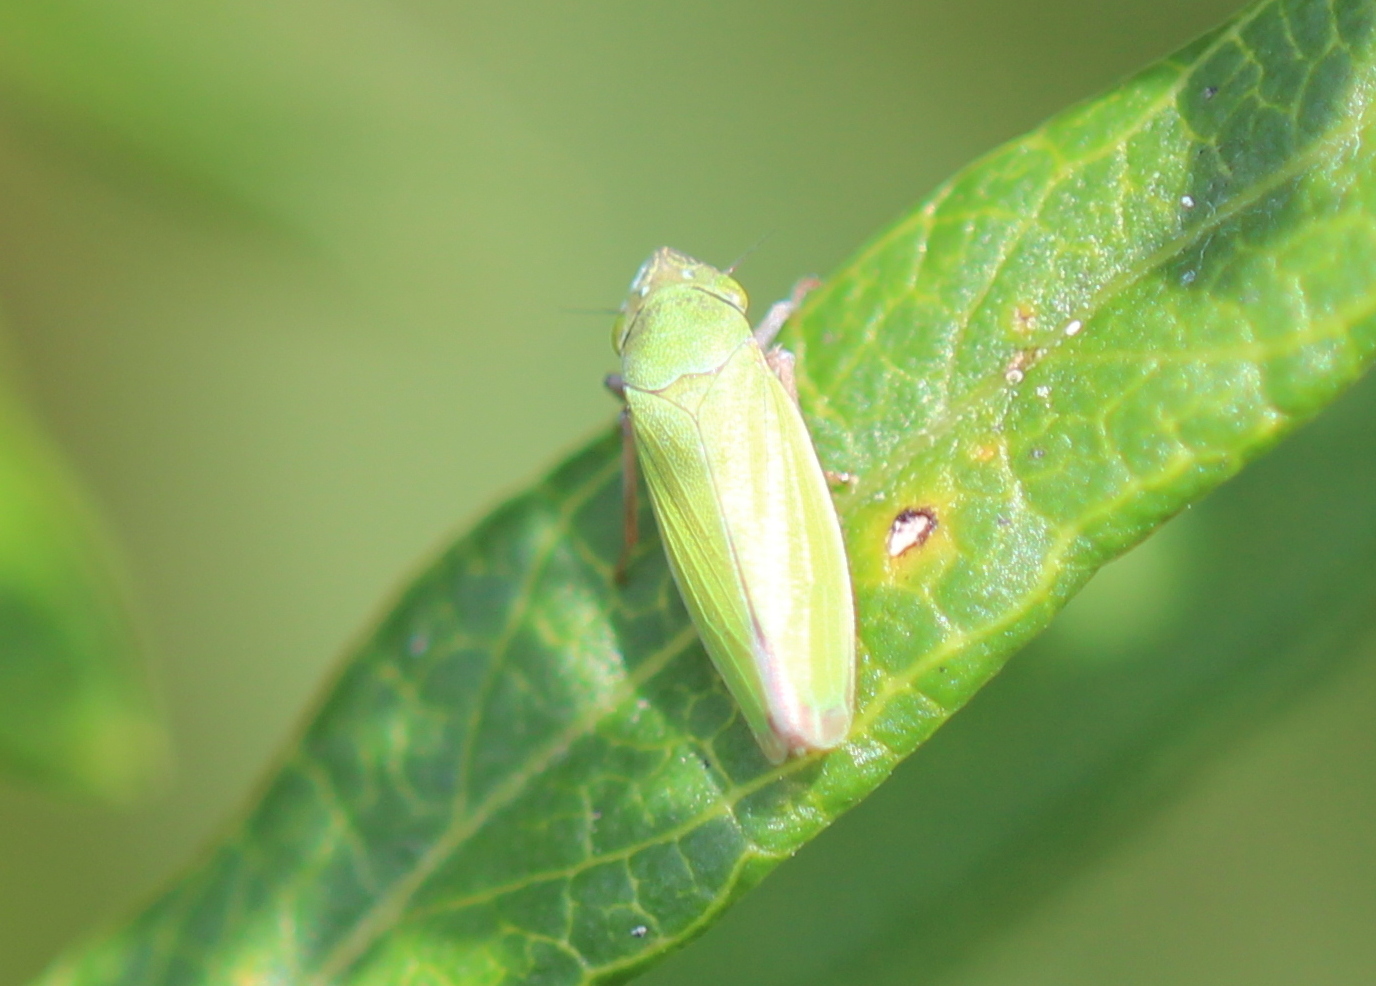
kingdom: Animalia
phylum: Arthropoda
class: Insecta
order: Hemiptera
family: Cicadellidae
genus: Helochara
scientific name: Helochara communis
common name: Bog leafhopper
